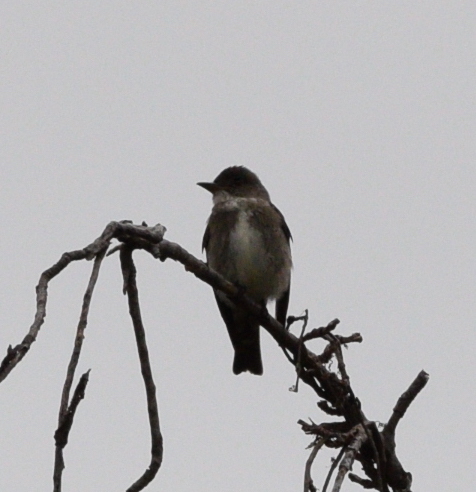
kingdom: Animalia
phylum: Chordata
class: Aves
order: Passeriformes
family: Tyrannidae
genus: Contopus
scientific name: Contopus cooperi
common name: Olive-sided flycatcher
